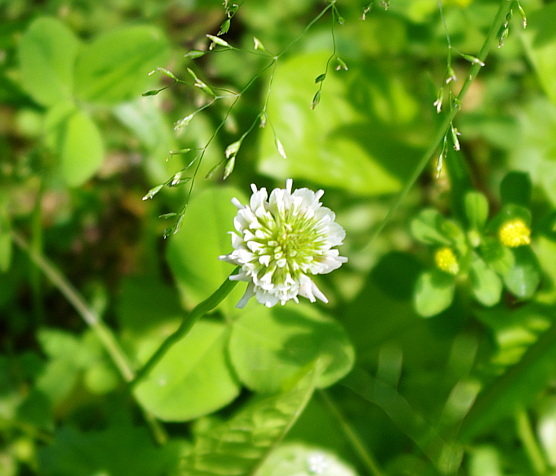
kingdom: Plantae
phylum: Tracheophyta
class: Magnoliopsida
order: Fabales
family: Fabaceae
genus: Trifolium
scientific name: Trifolium repens
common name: White clover
